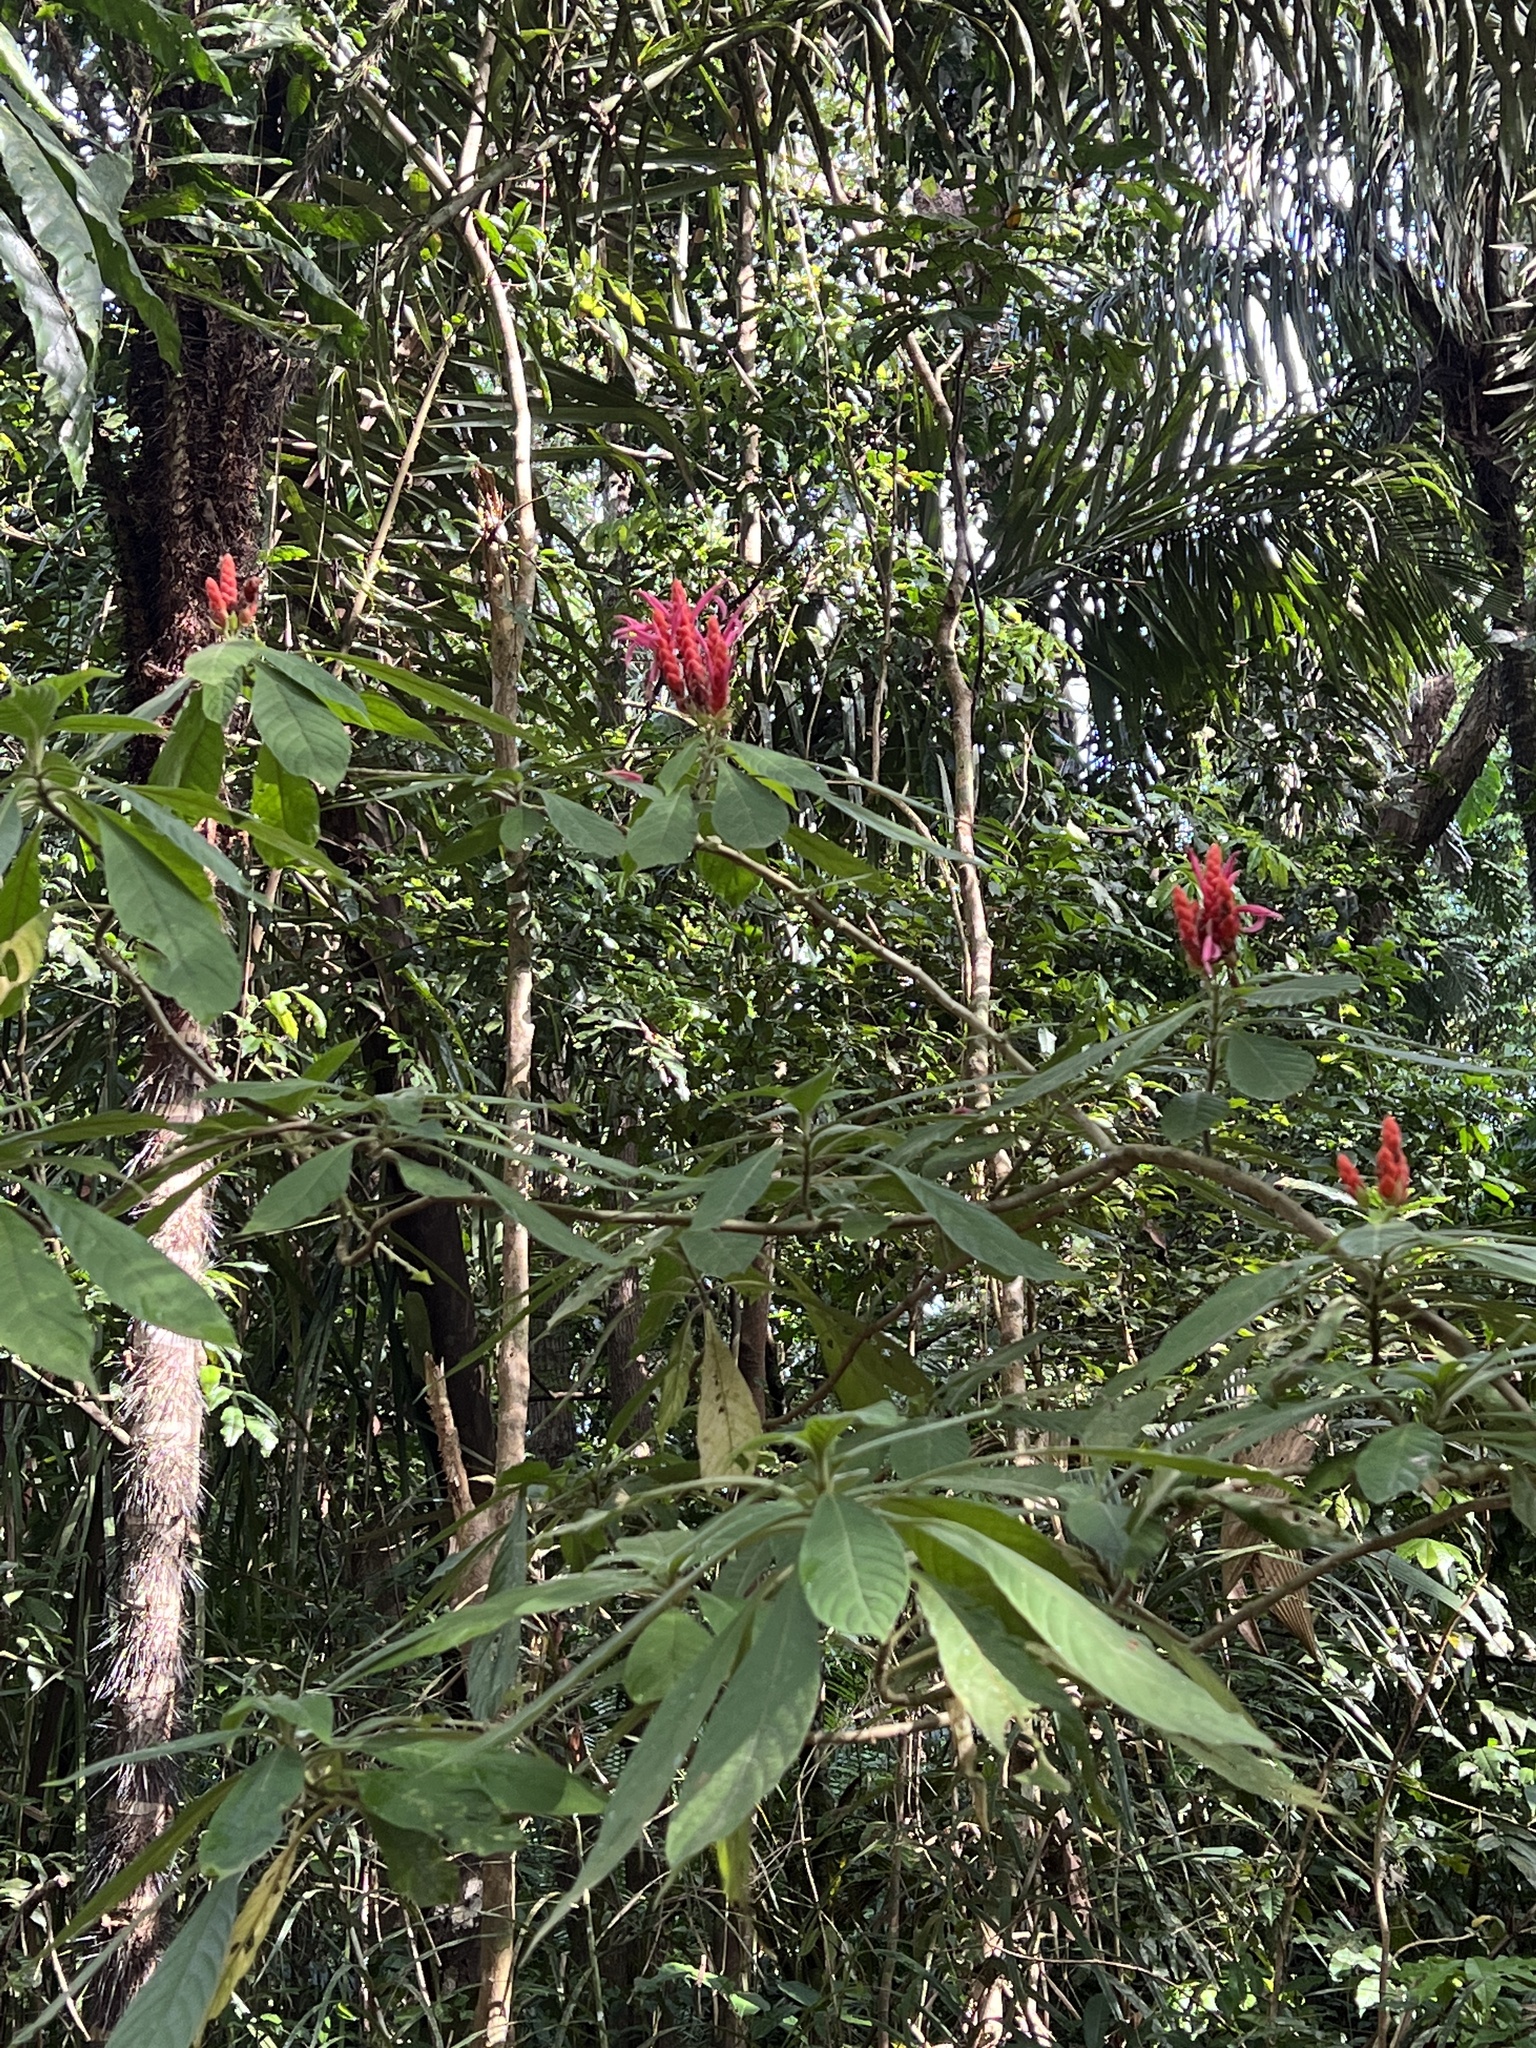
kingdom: Plantae
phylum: Tracheophyta
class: Magnoliopsida
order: Lamiales
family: Acanthaceae
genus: Aphelandra
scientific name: Aphelandra sinclairiana
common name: Coral aphelandra
